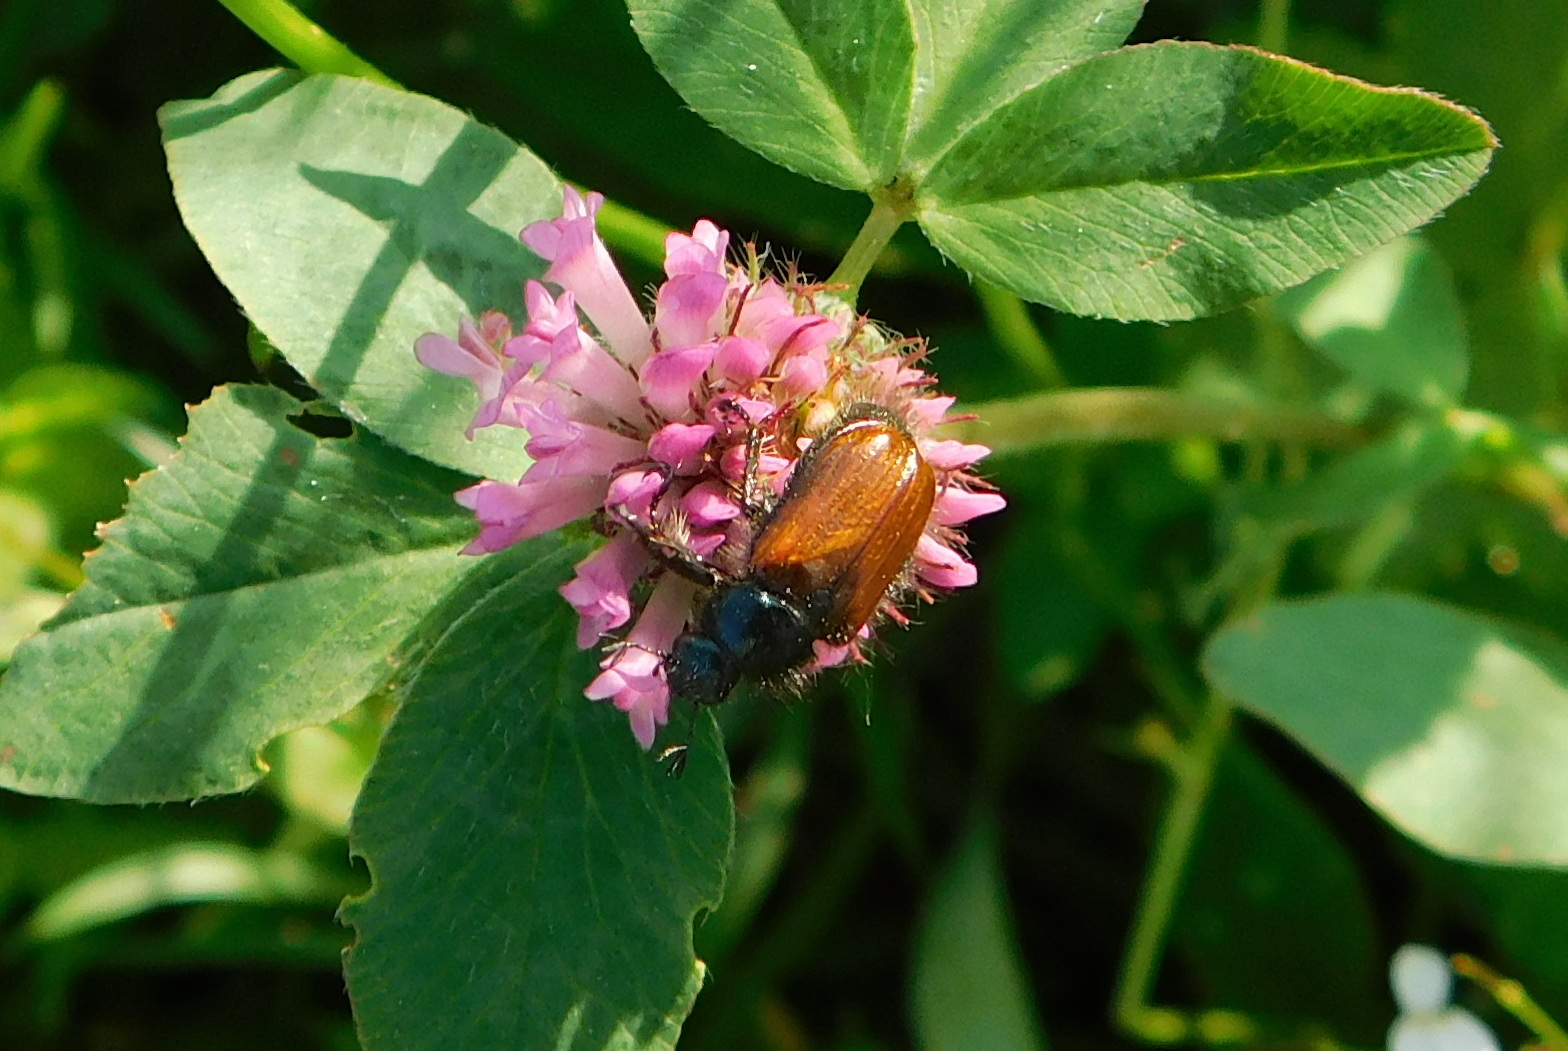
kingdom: Animalia
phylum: Arthropoda
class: Insecta
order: Coleoptera
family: Scarabaeidae
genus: Phyllopertha
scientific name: Phyllopertha horticola
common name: Garden chafer
